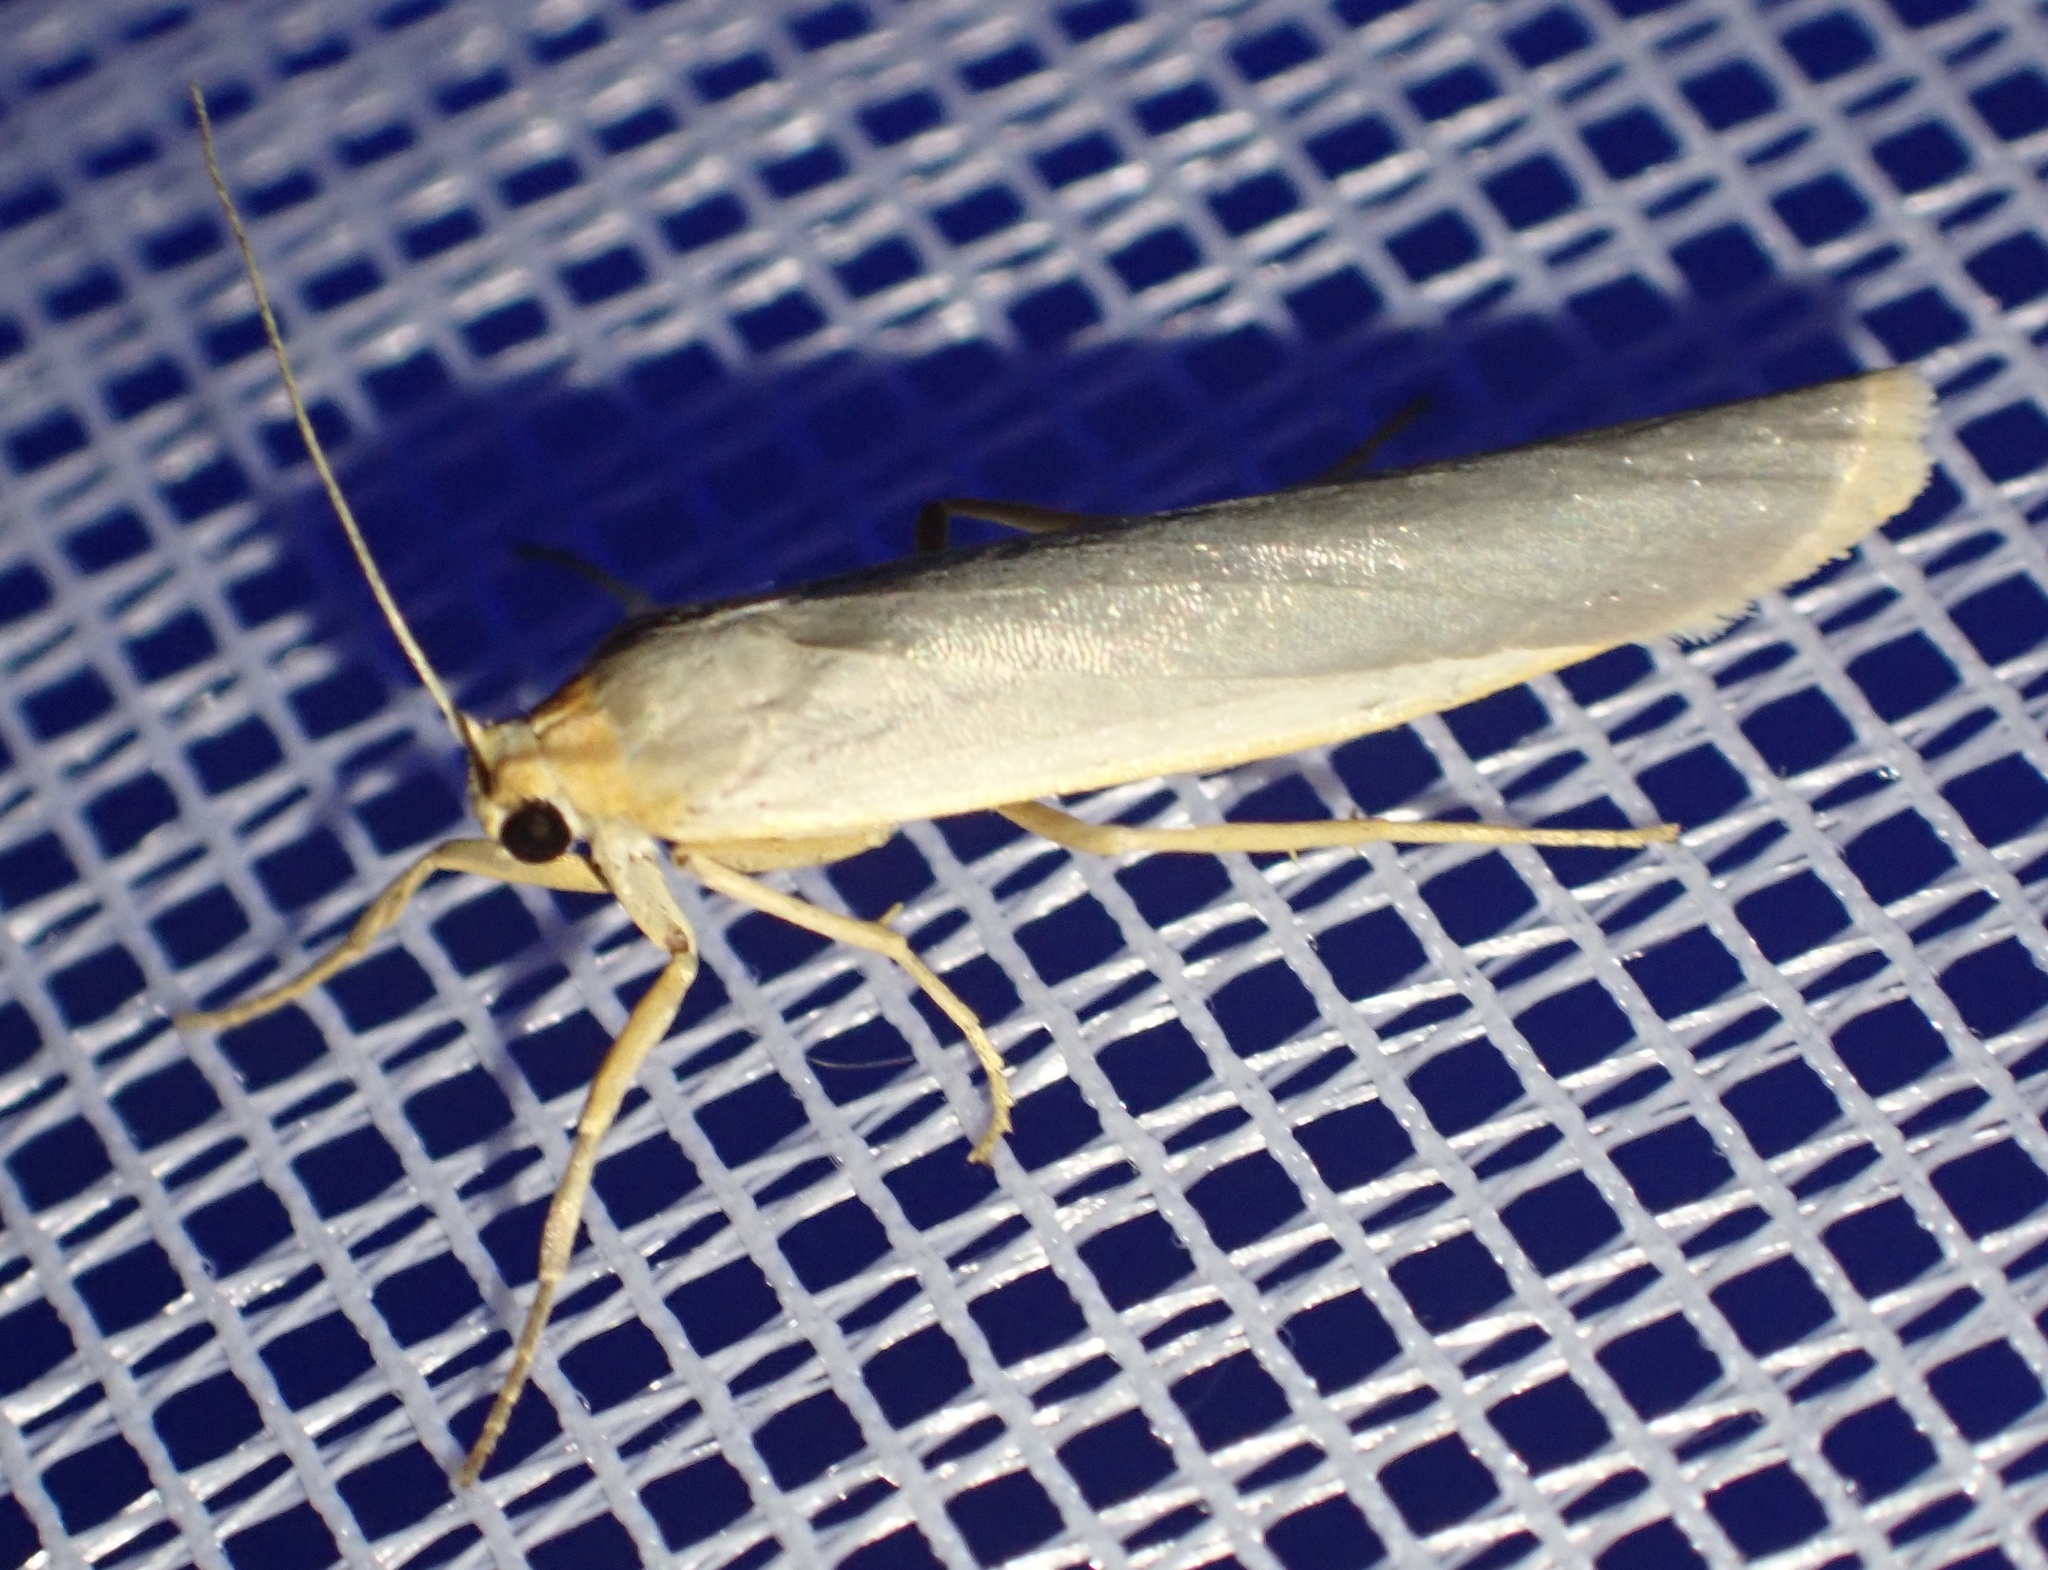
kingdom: Animalia
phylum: Arthropoda
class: Insecta
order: Lepidoptera
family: Erebidae
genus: Eilema
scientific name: Eilema caniola
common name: Hoary footman
